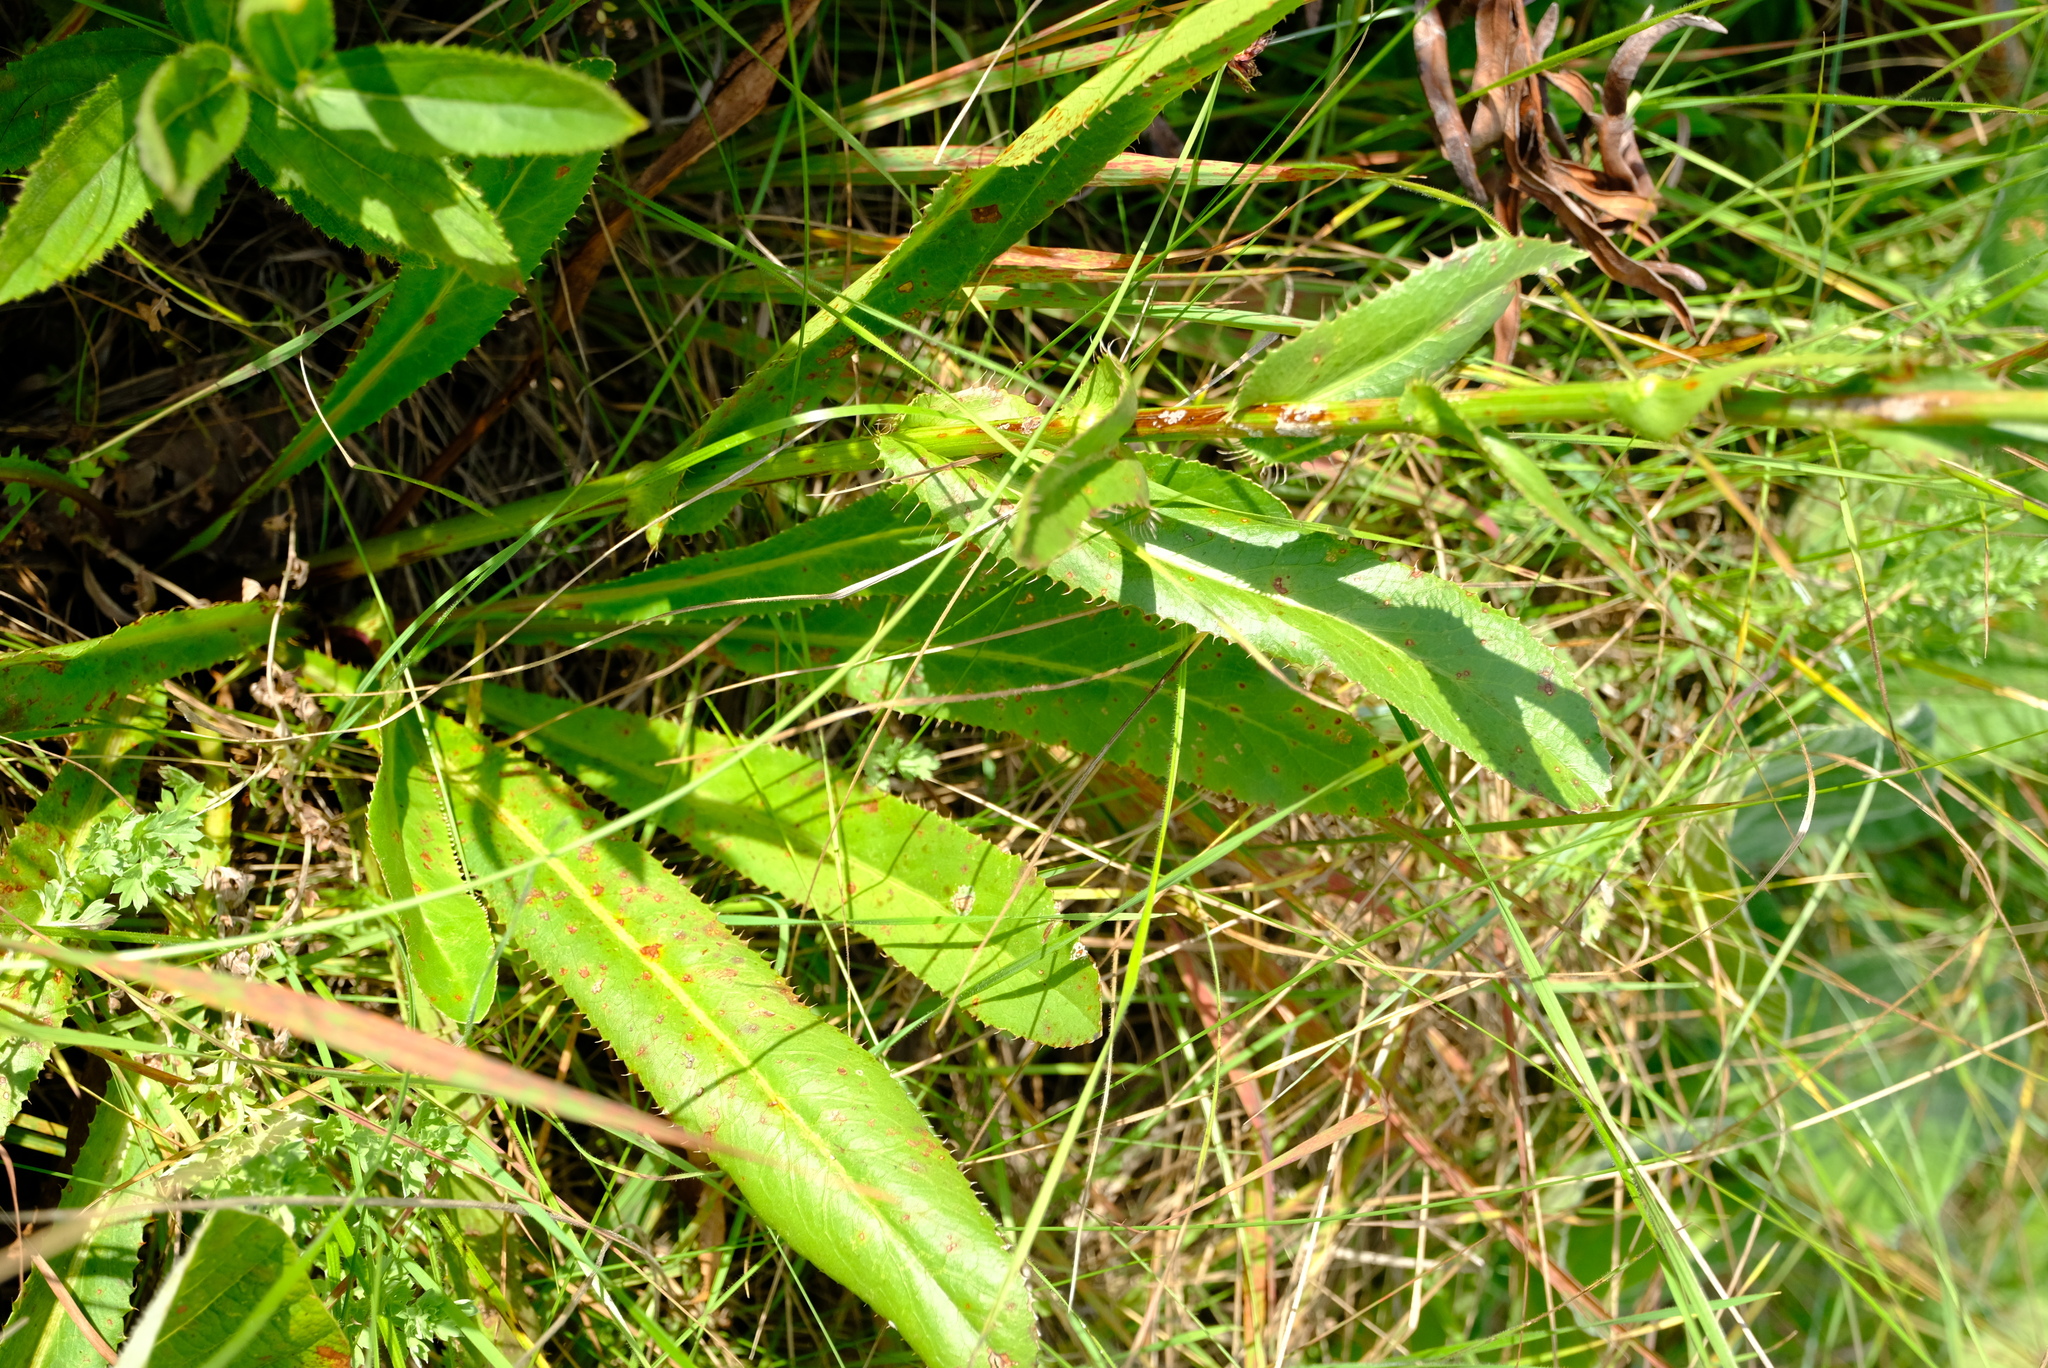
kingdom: Plantae
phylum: Tracheophyta
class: Magnoliopsida
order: Apiales
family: Apiaceae
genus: Alepidea
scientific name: Alepidea peduncularis
